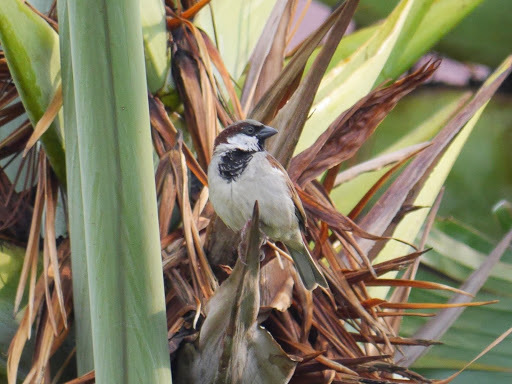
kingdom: Animalia
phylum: Chordata
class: Aves
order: Passeriformes
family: Passeridae
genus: Passer
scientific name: Passer domesticus
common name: House sparrow
